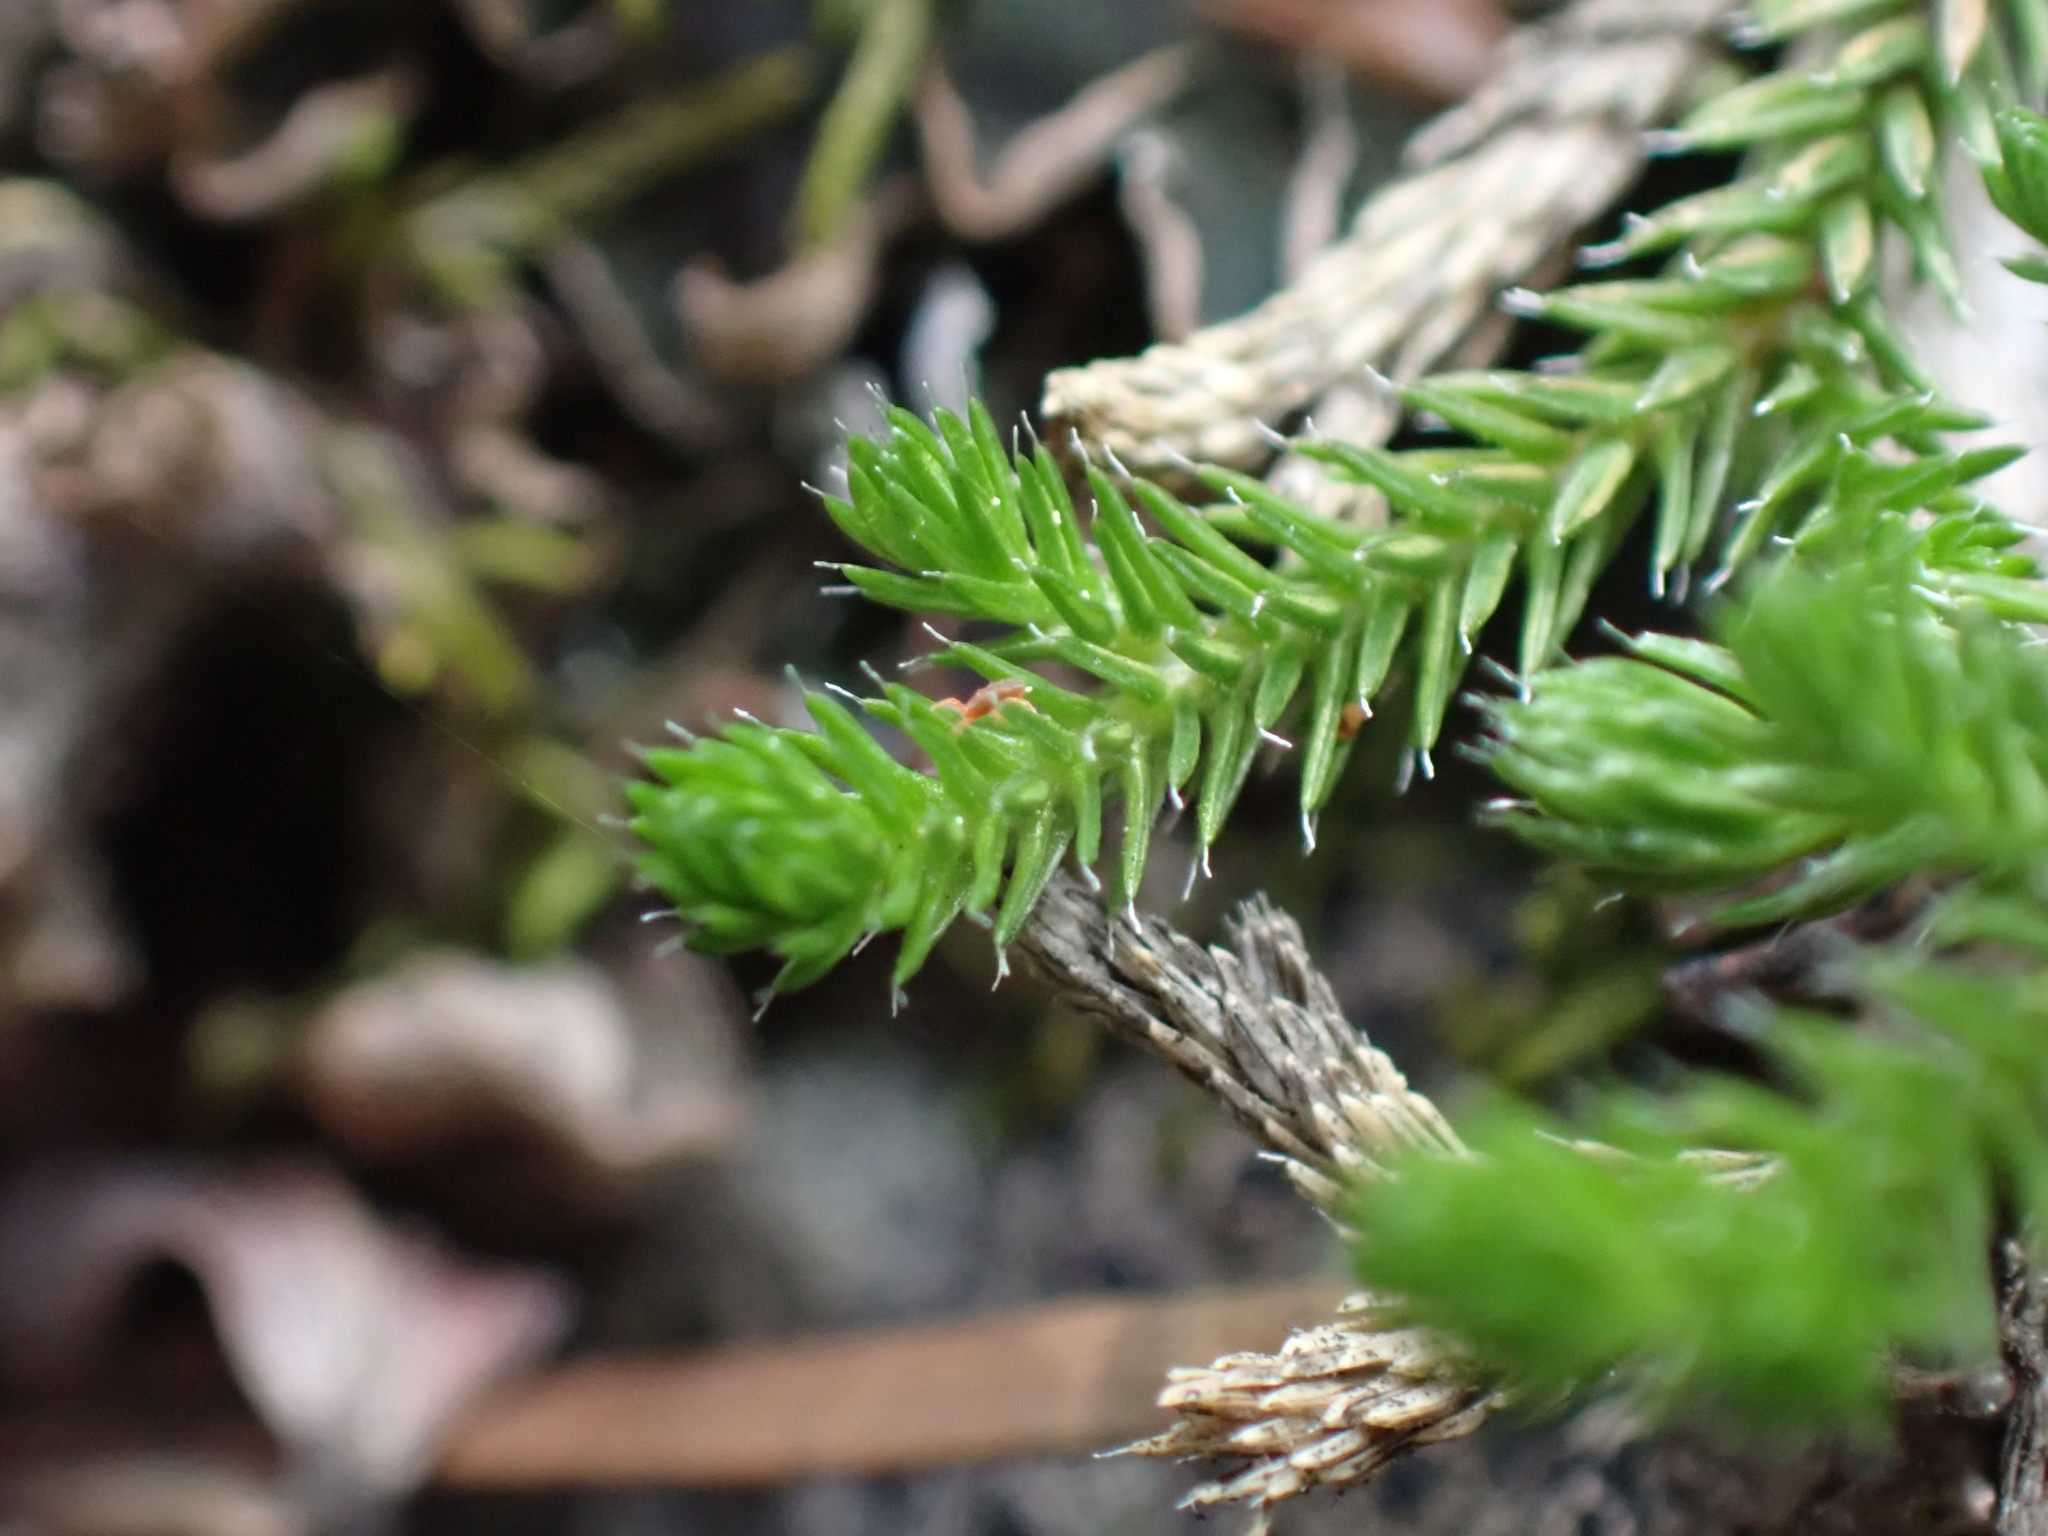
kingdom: Plantae
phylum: Tracheophyta
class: Lycopodiopsida
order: Selaginellales
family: Selaginellaceae
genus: Selaginella
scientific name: Selaginella wallacei
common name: Wallace's selaginella
